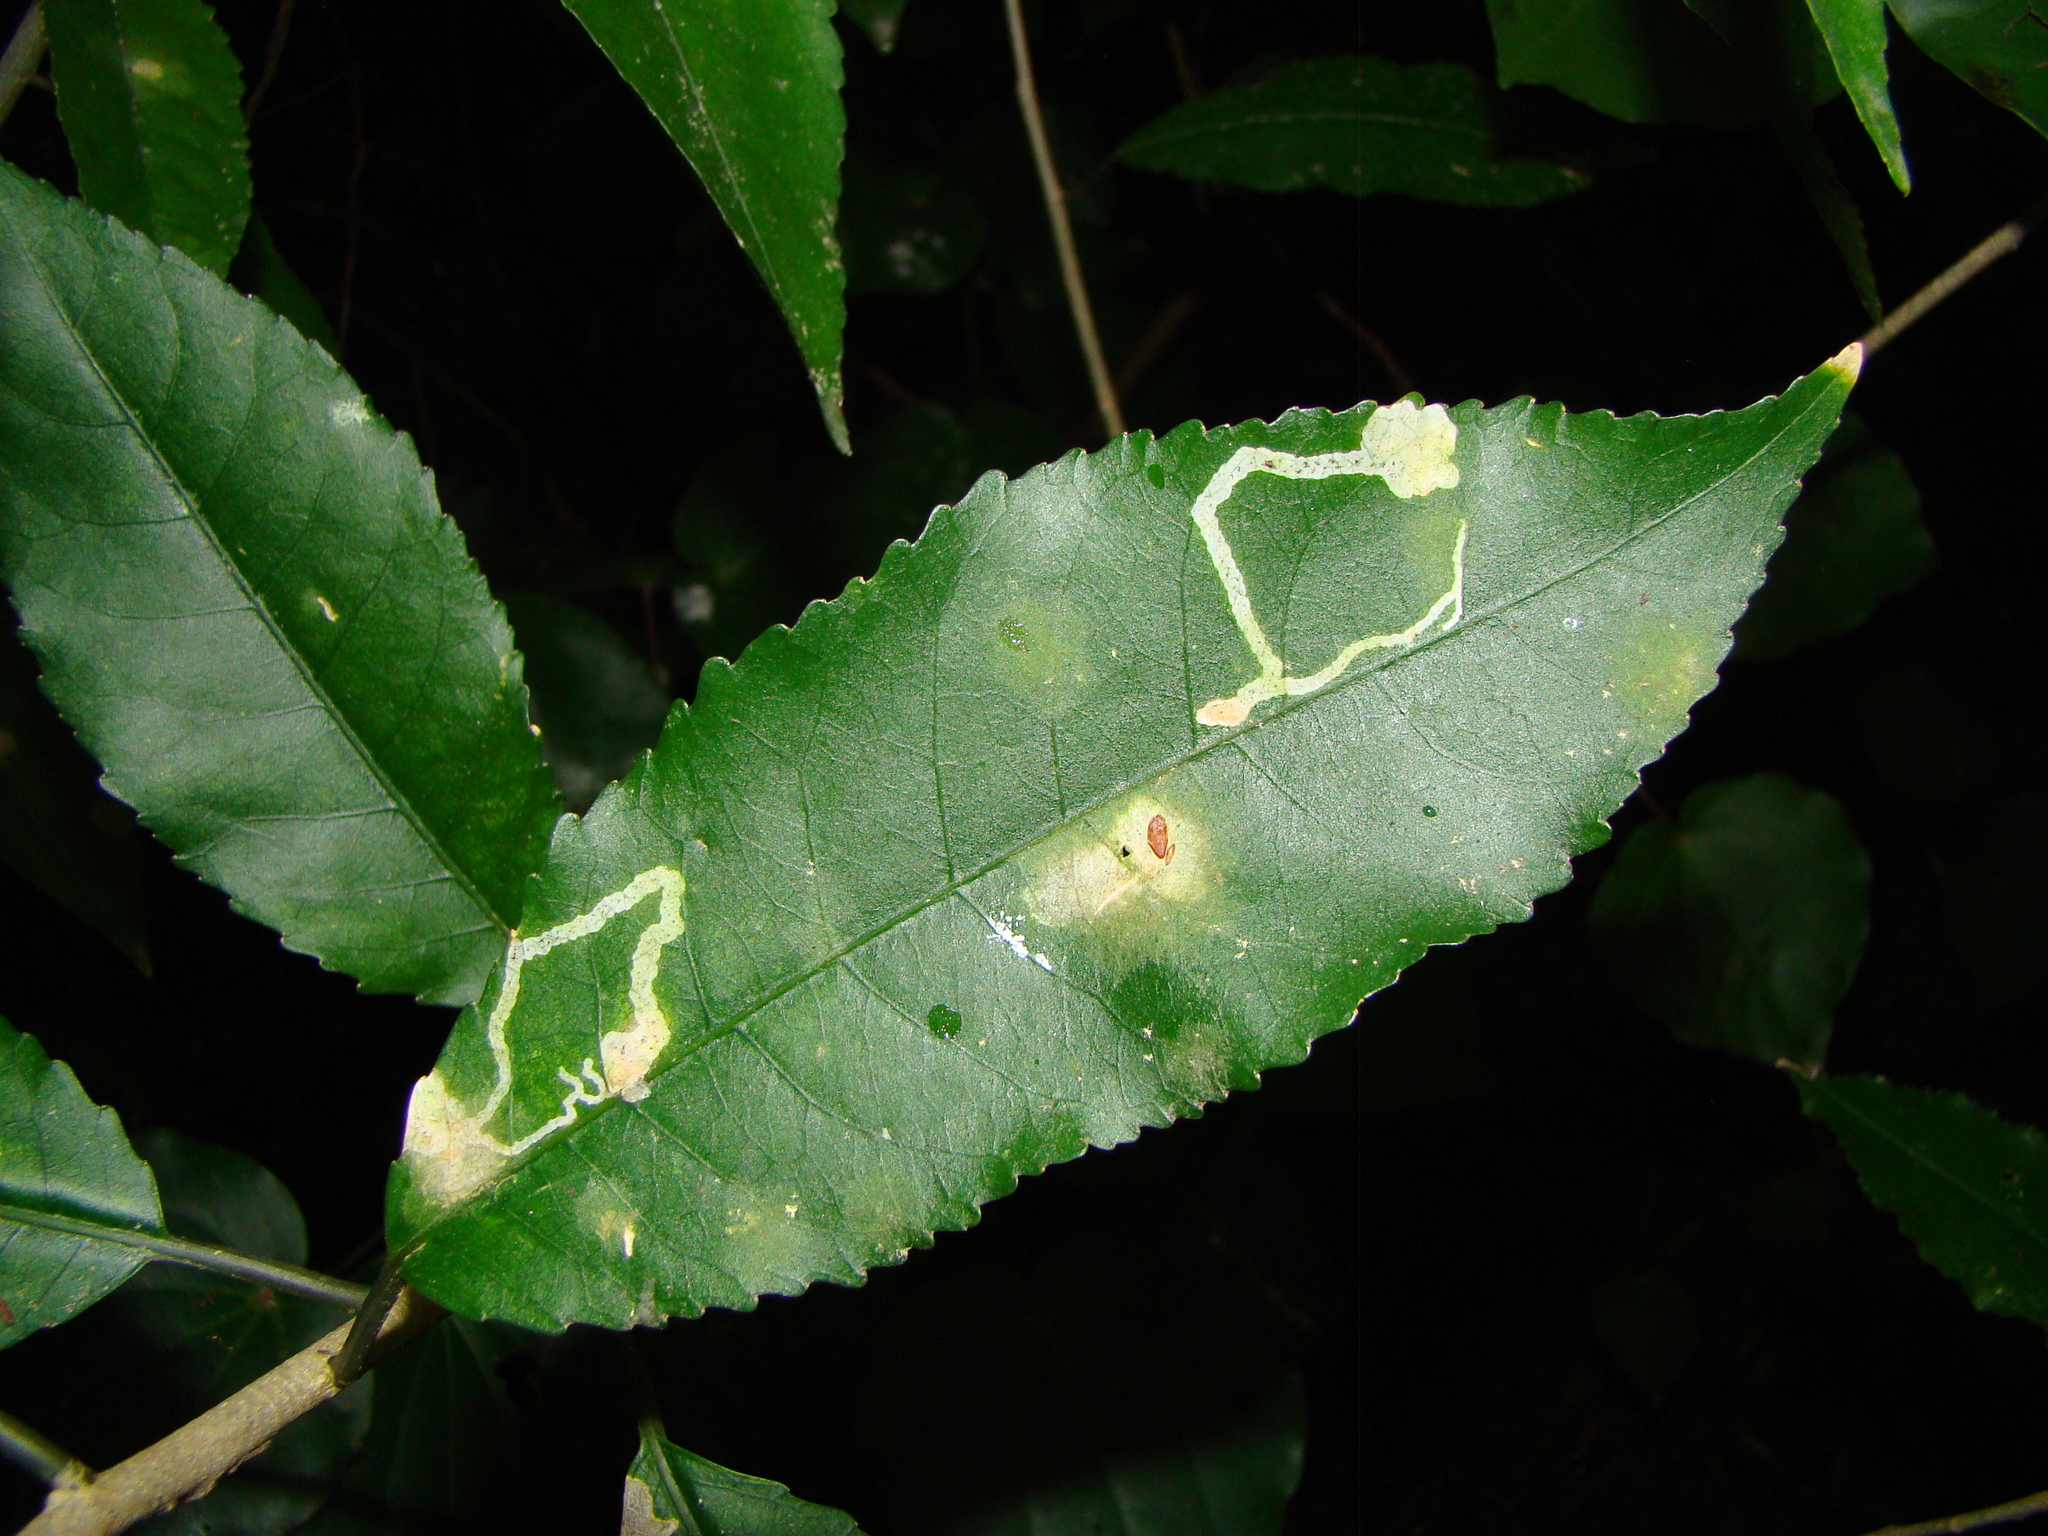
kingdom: Animalia
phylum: Arthropoda
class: Insecta
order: Diptera
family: Agromyzidae
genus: Liriomyza
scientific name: Liriomyza flavolateralis
